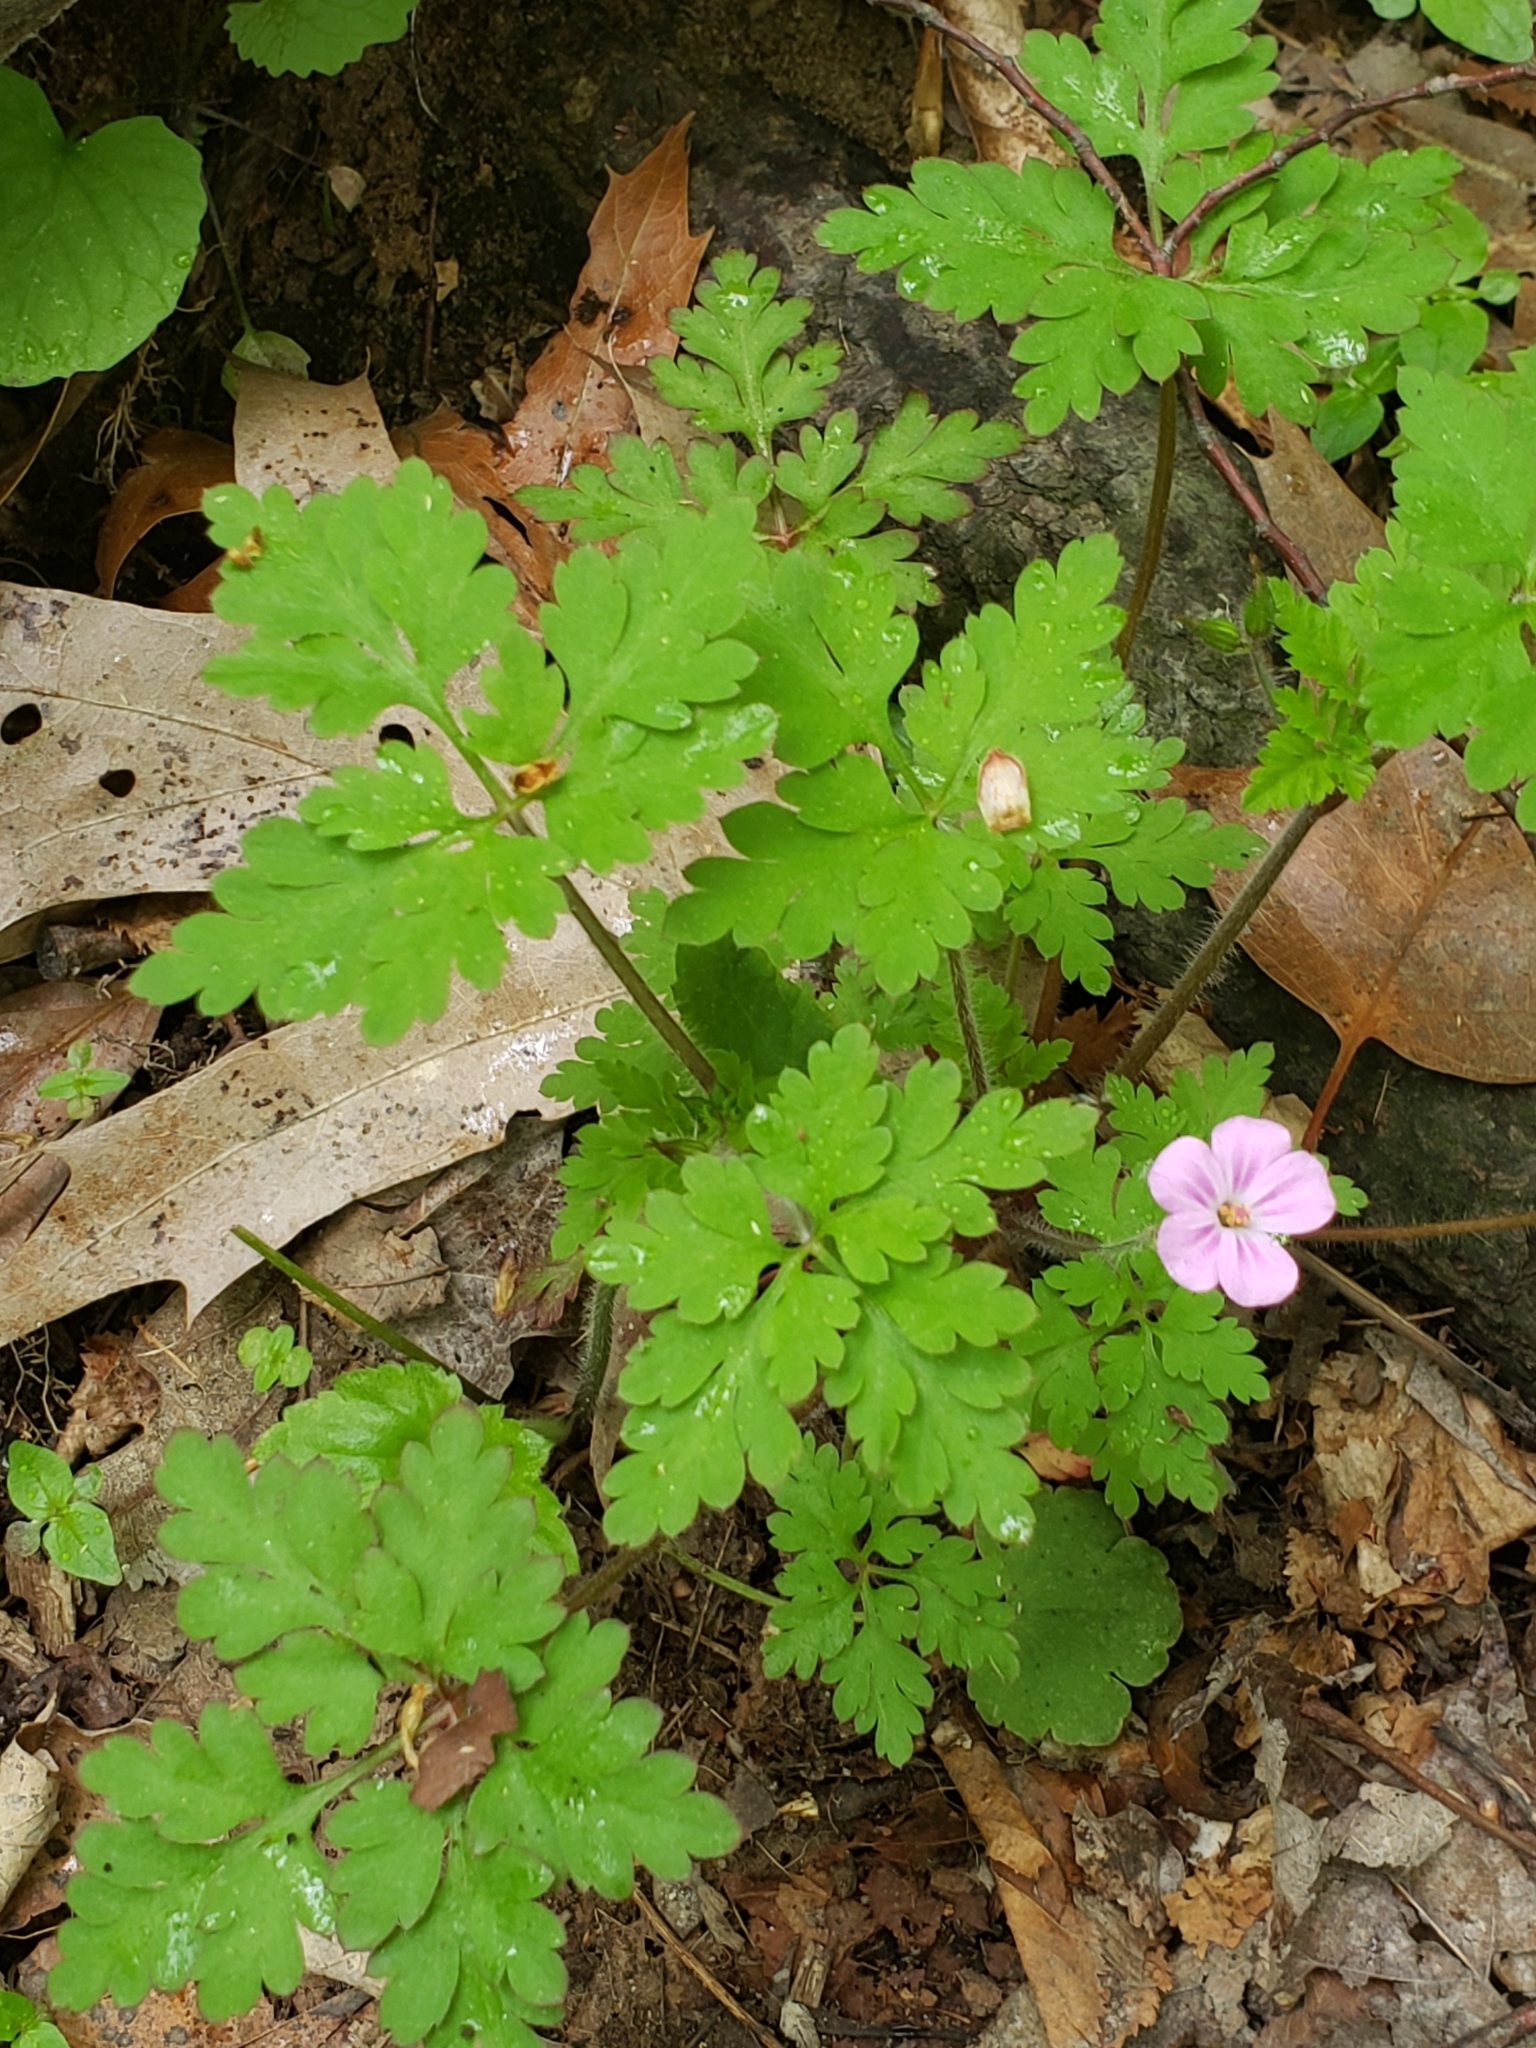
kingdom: Plantae
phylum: Tracheophyta
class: Magnoliopsida
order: Geraniales
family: Geraniaceae
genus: Geranium
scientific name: Geranium robertianum
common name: Herb-robert
